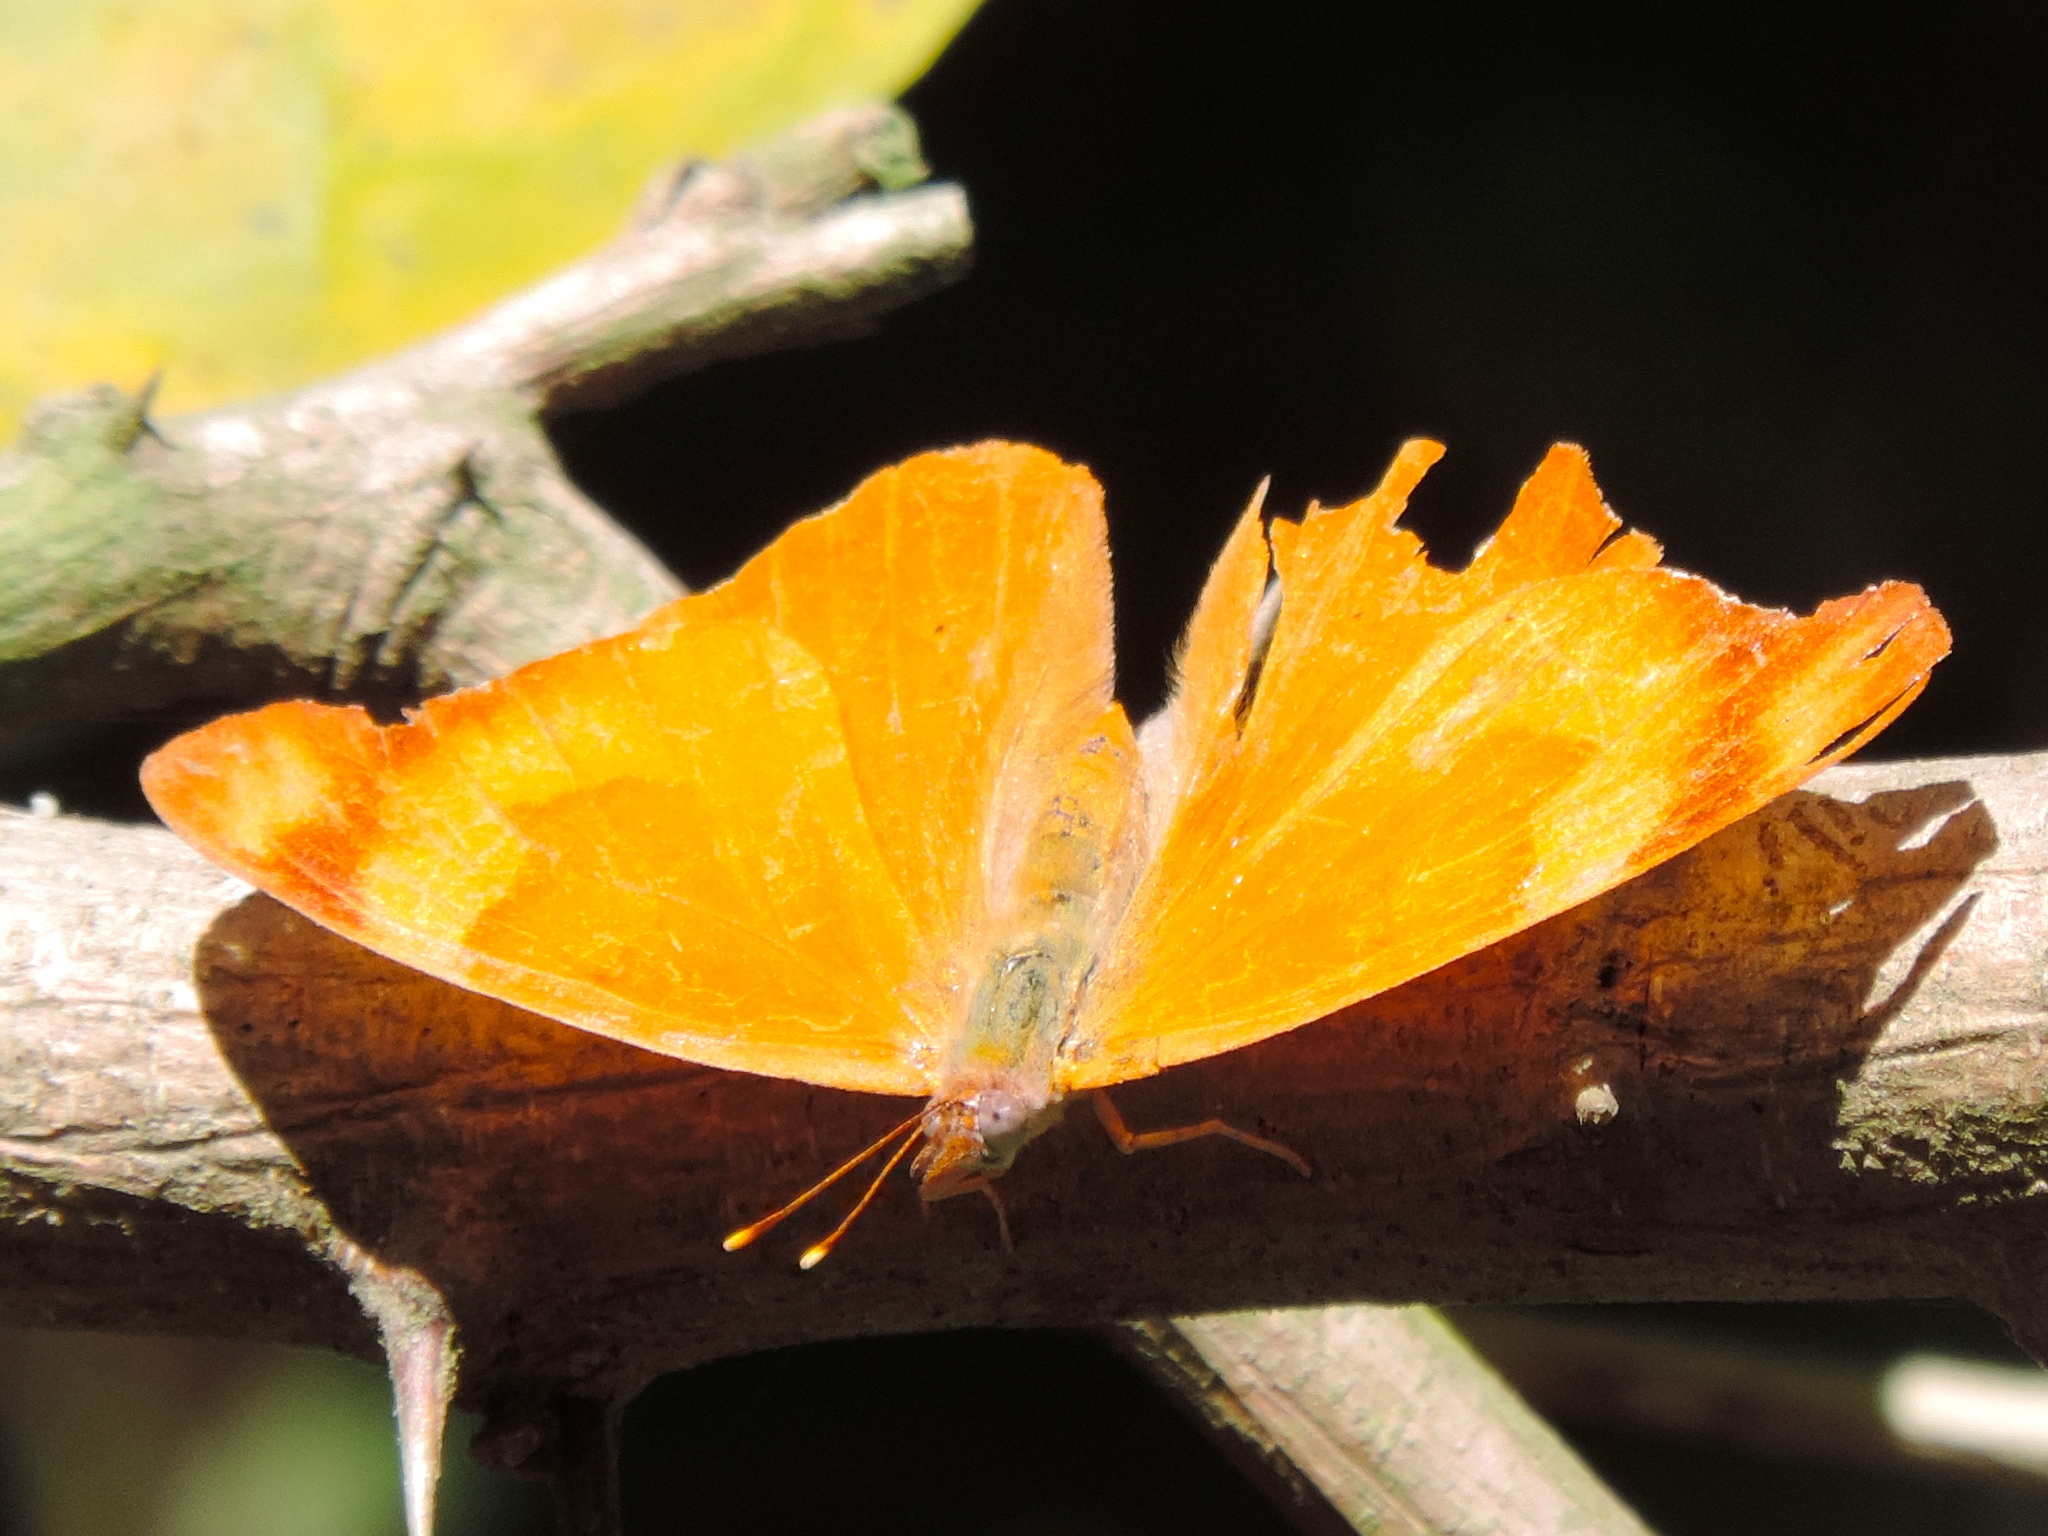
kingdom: Animalia
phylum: Arthropoda
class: Insecta
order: Lepidoptera
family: Nymphalidae
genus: Temenis
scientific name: Temenis laothoe
